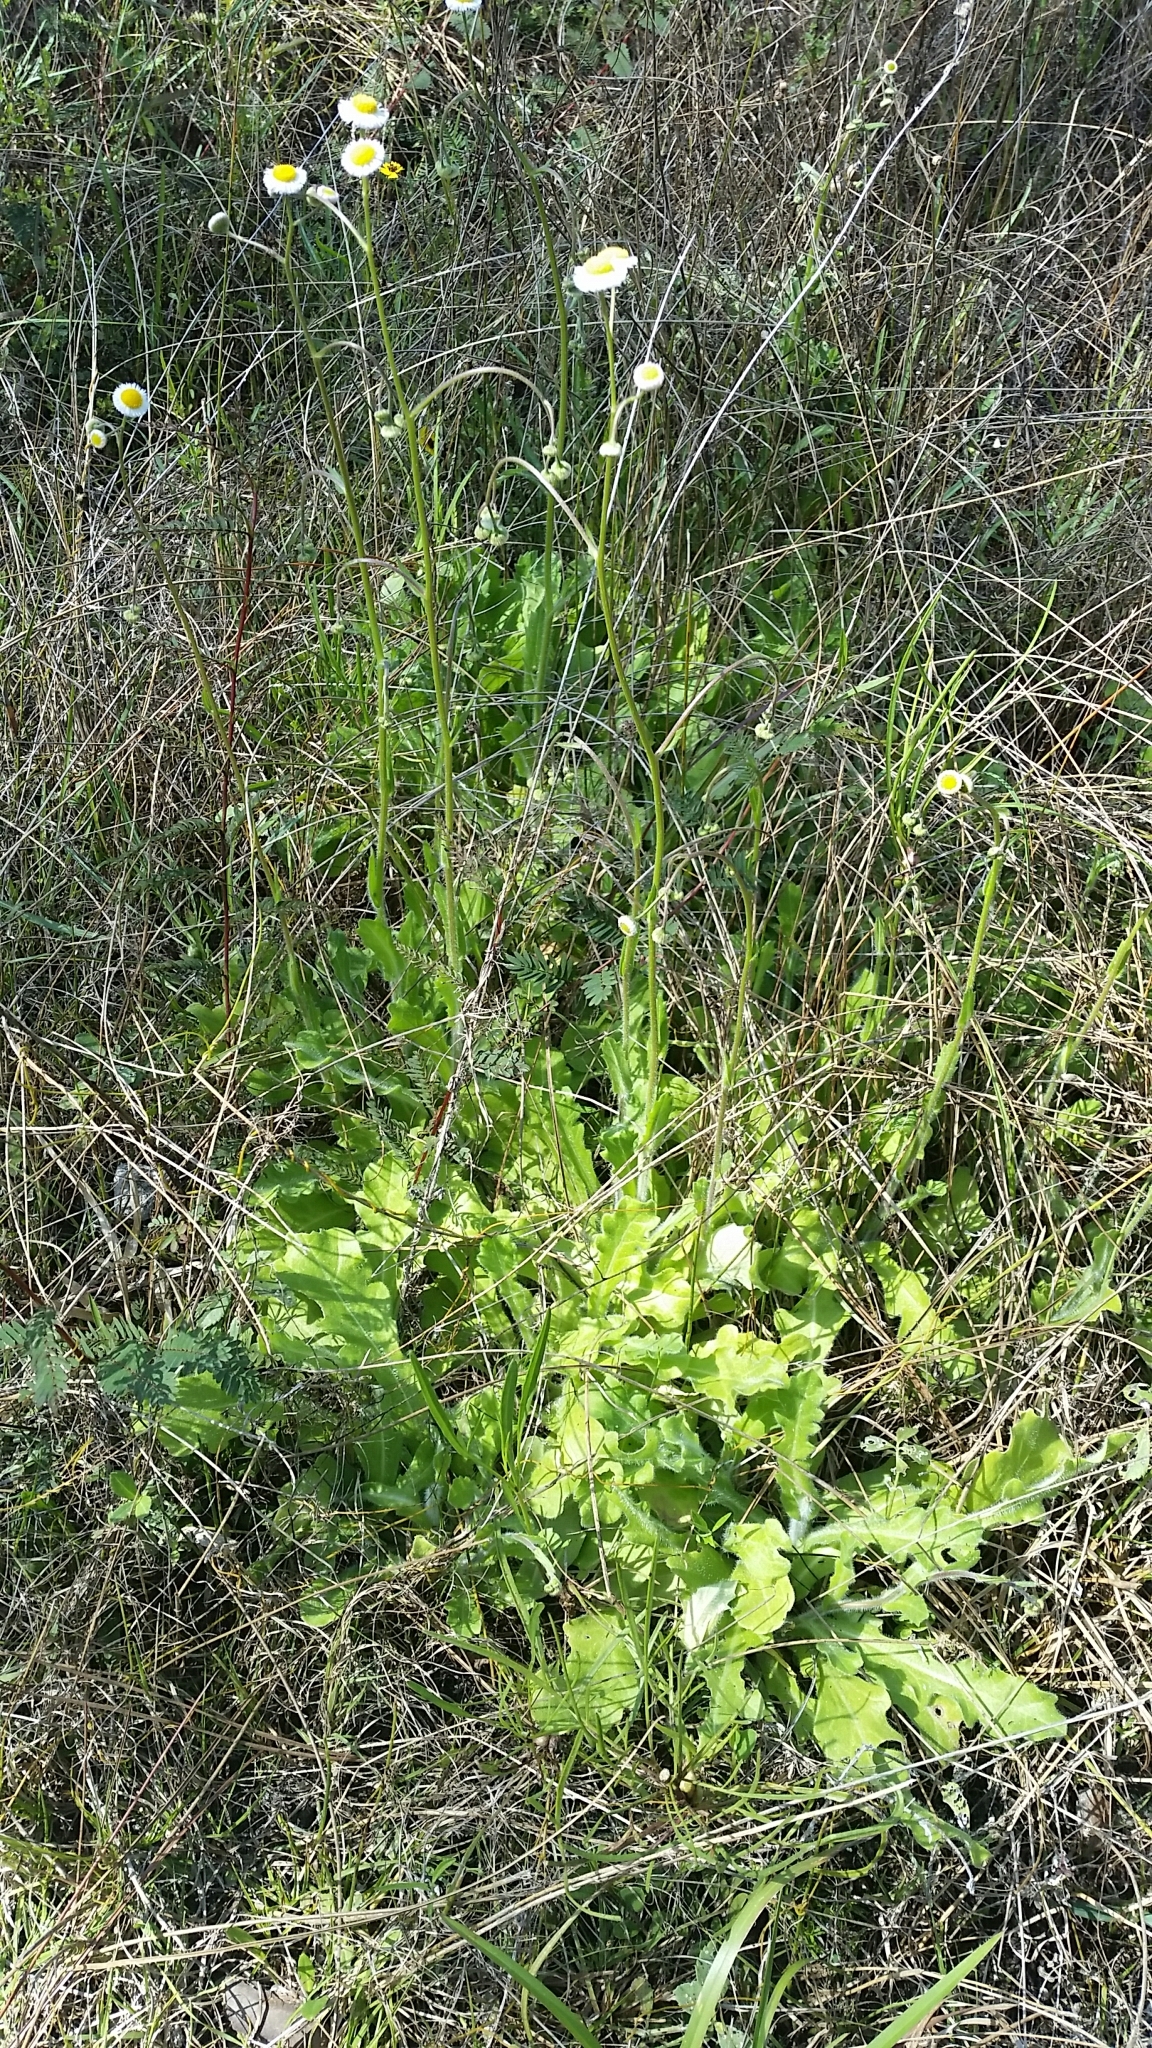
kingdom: Plantae
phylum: Tracheophyta
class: Magnoliopsida
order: Asterales
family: Asteraceae
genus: Erigeron
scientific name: Erigeron quercifolius
